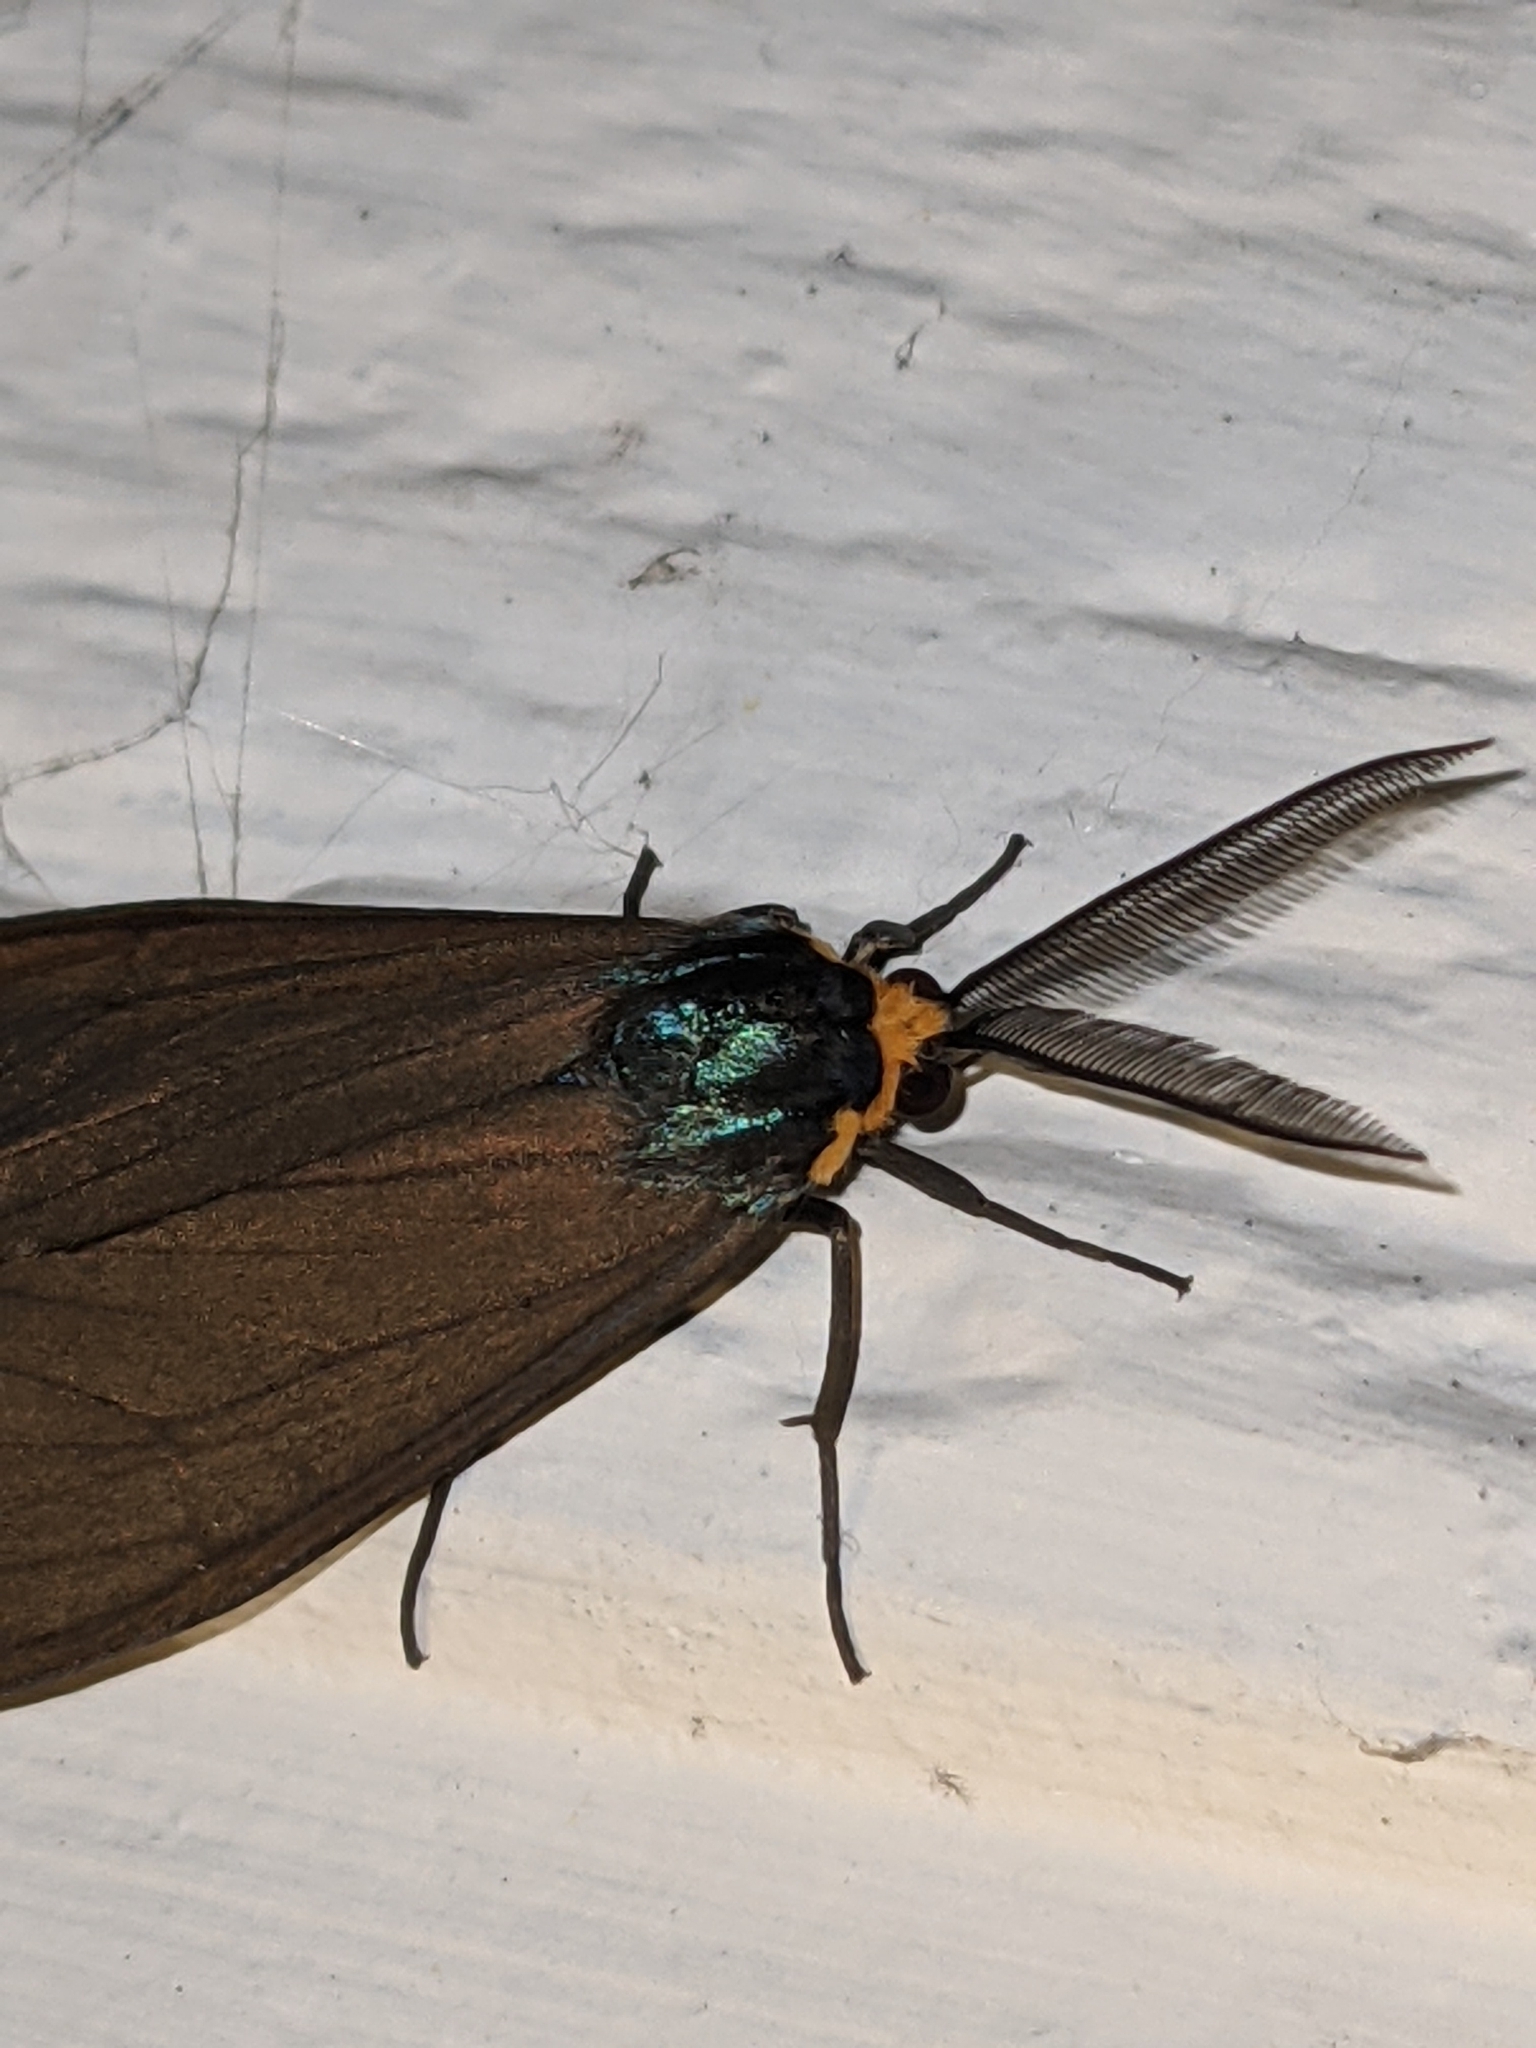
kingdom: Animalia
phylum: Arthropoda
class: Insecta
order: Lepidoptera
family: Erebidae
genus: Ctenucha
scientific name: Ctenucha virginica
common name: Virginia ctenucha moth
